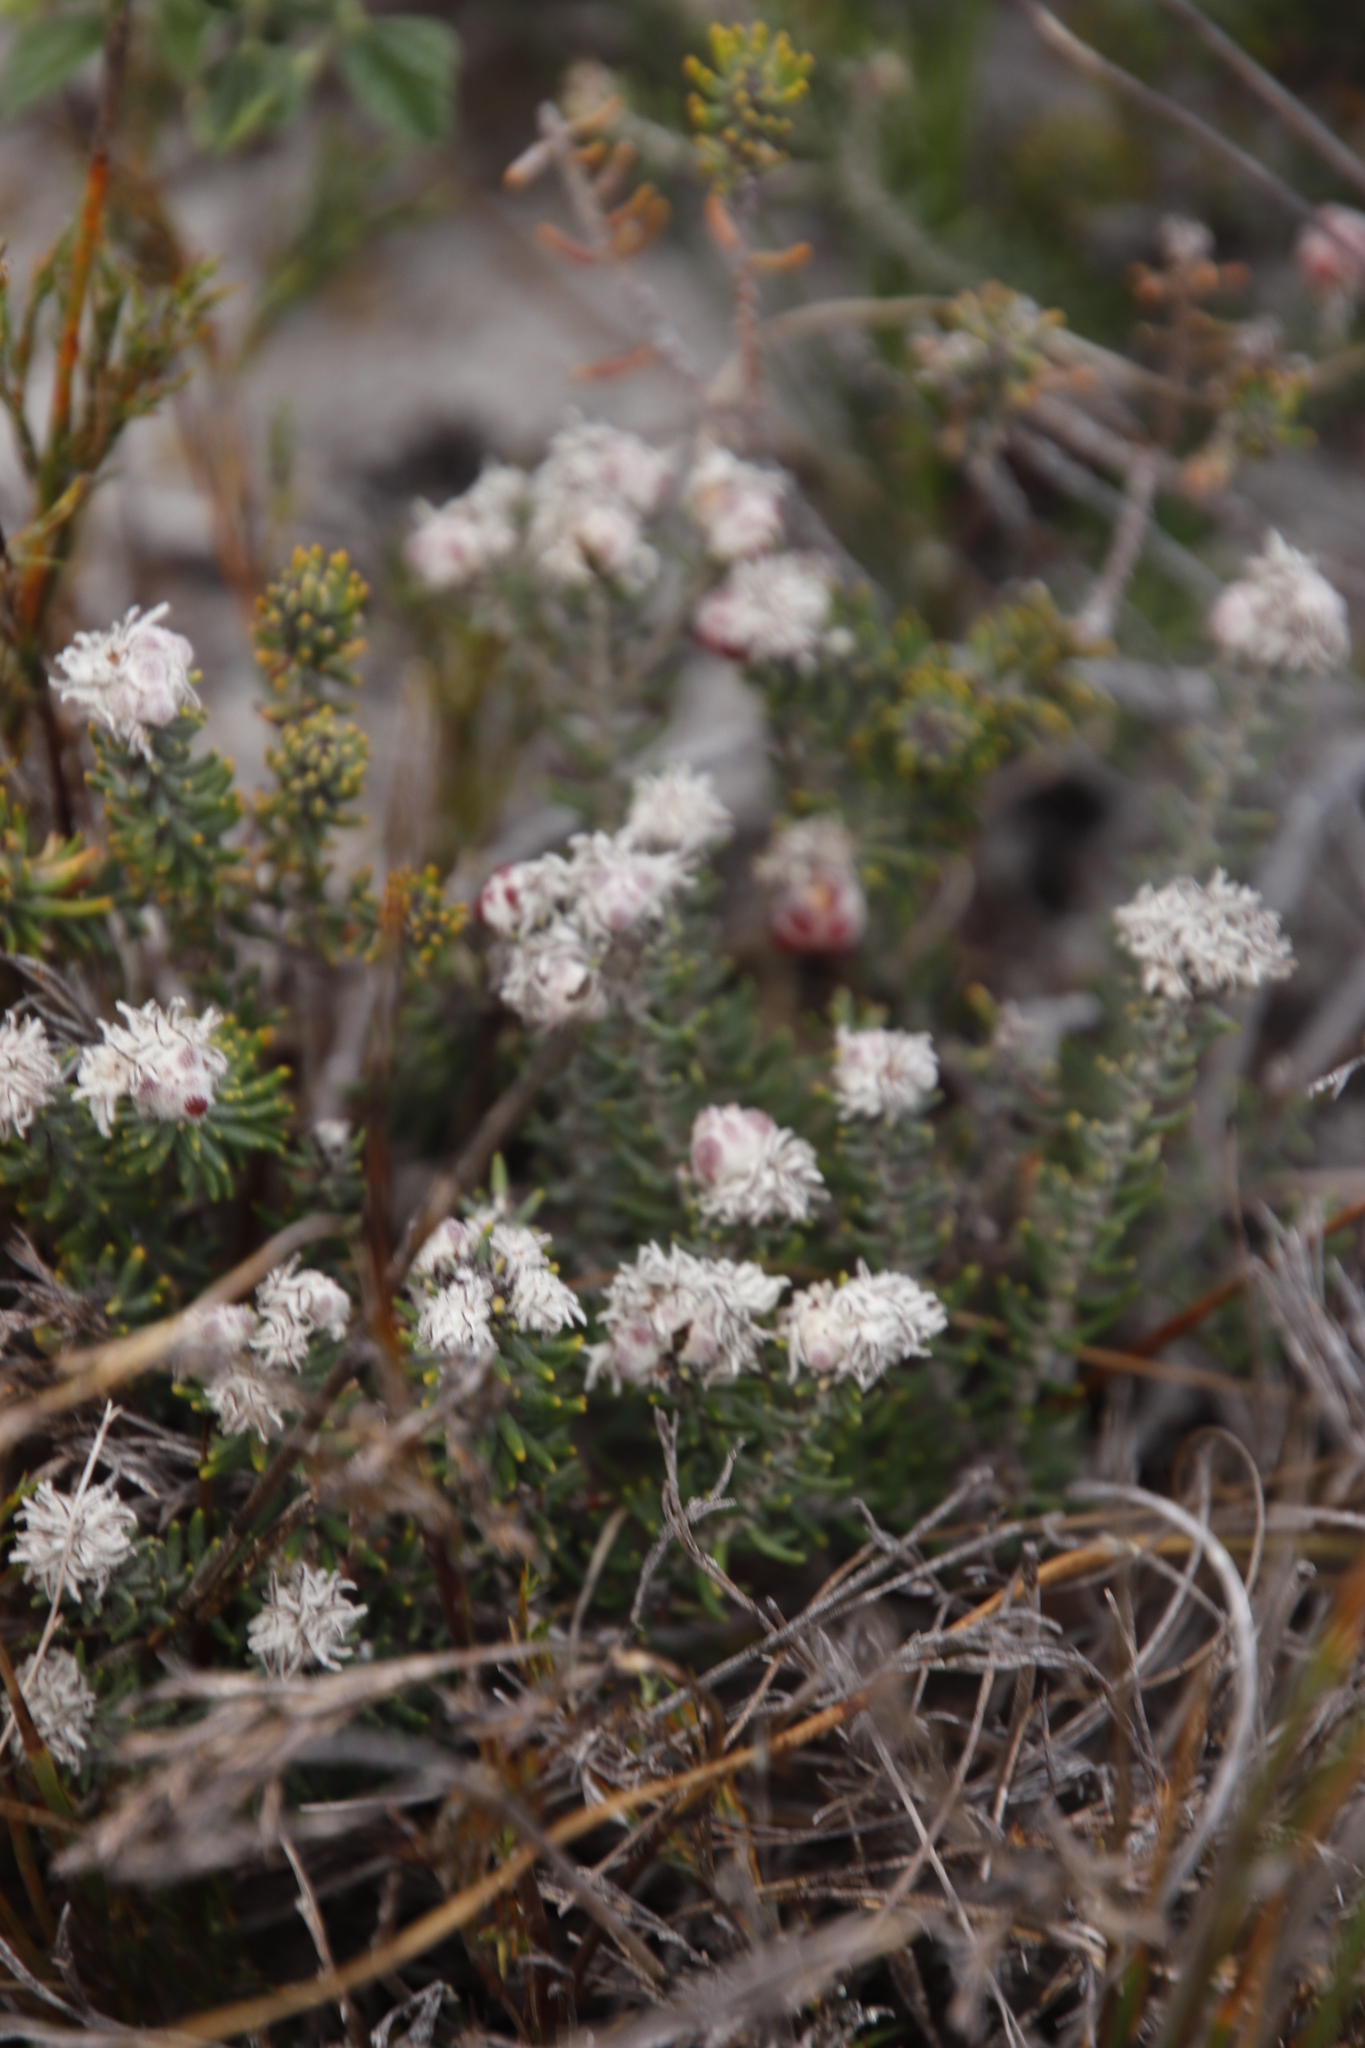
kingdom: Plantae
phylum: Tracheophyta
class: Magnoliopsida
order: Rosales
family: Rhamnaceae
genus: Trichocephalus
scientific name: Trichocephalus stipularis
